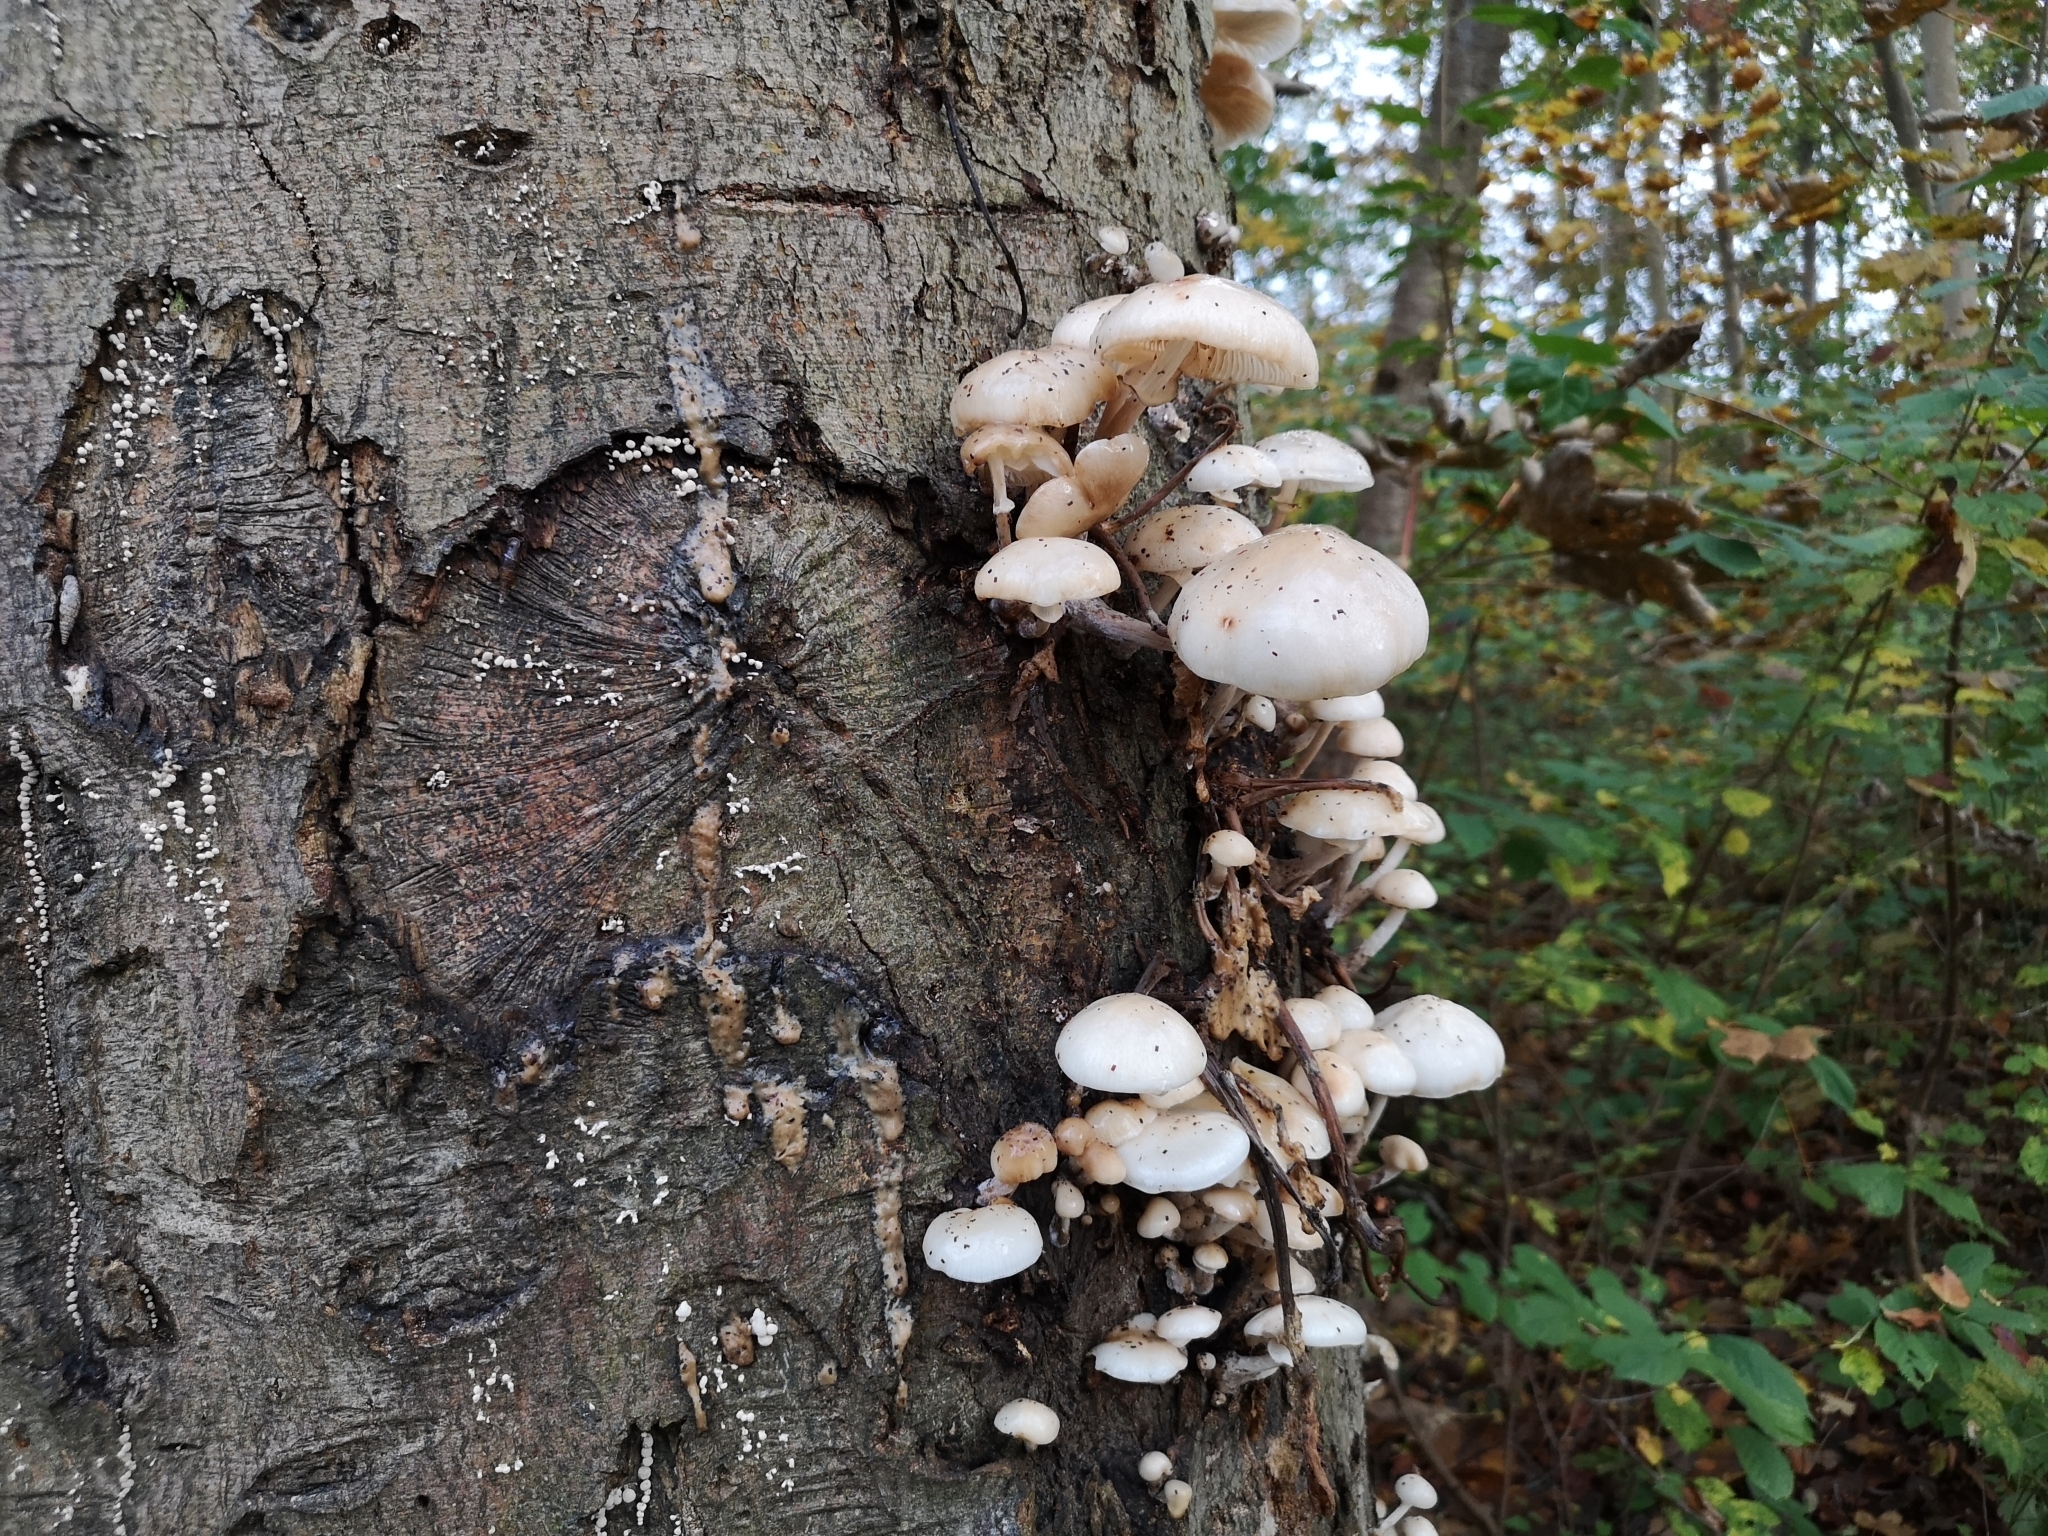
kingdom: Fungi
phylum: Basidiomycota
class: Agaricomycetes
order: Agaricales
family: Physalacriaceae
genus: Mucidula
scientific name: Mucidula mucida
